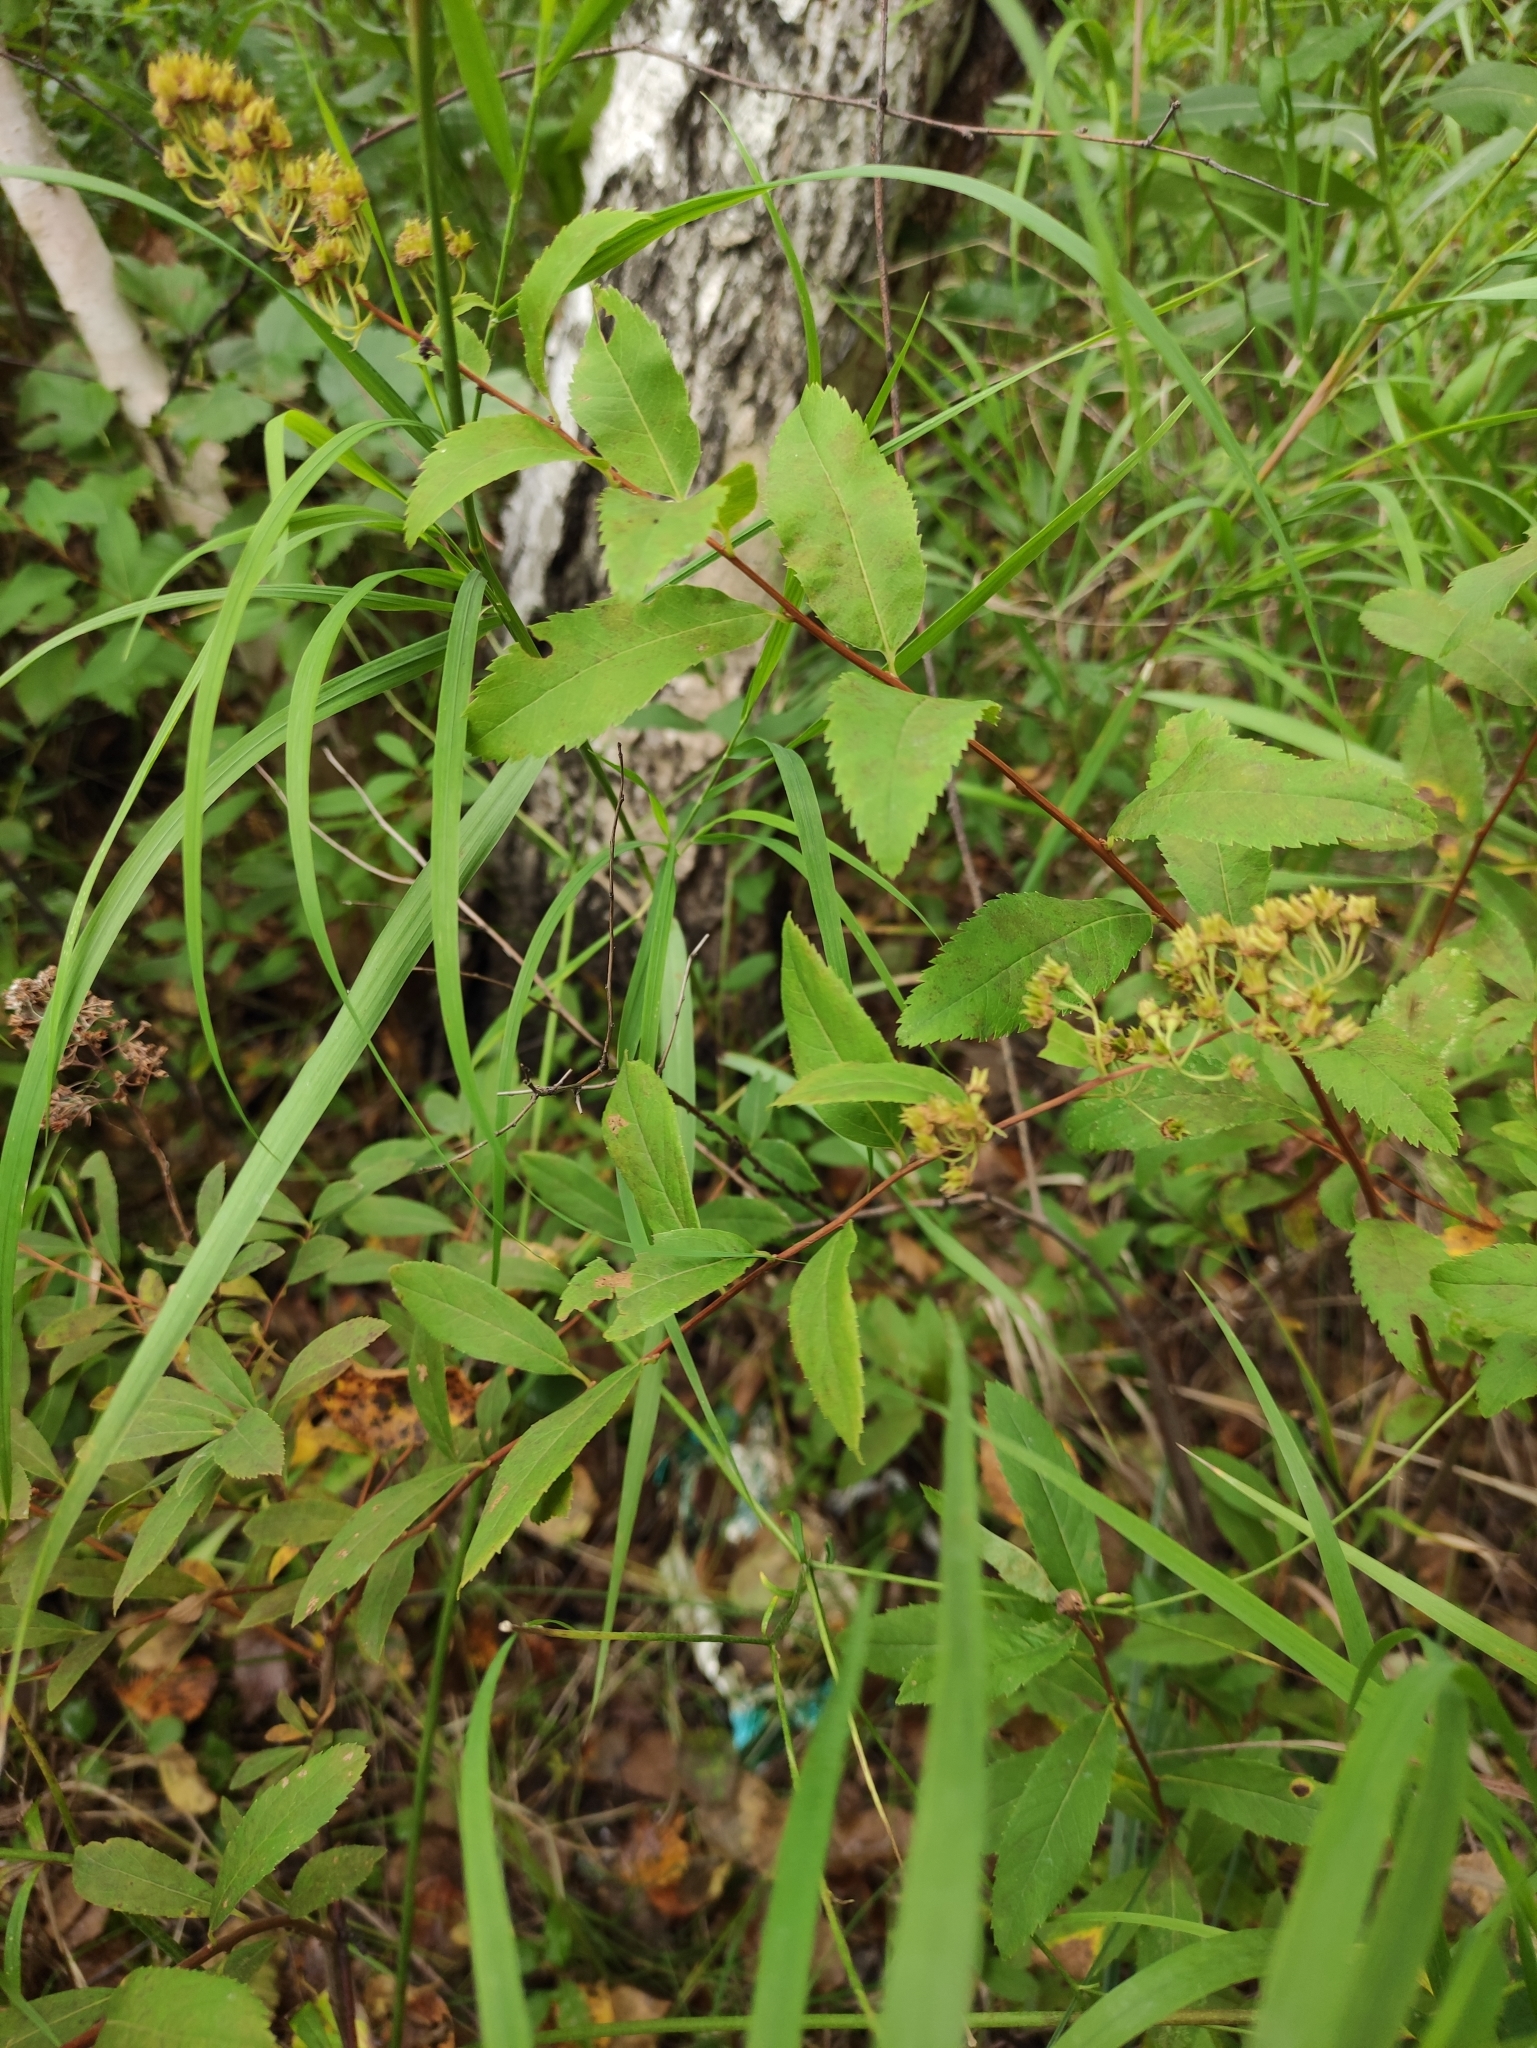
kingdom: Plantae
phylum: Tracheophyta
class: Magnoliopsida
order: Rosales
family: Rosaceae
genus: Spiraea
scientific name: Spiraea media
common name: Russian spiraea
